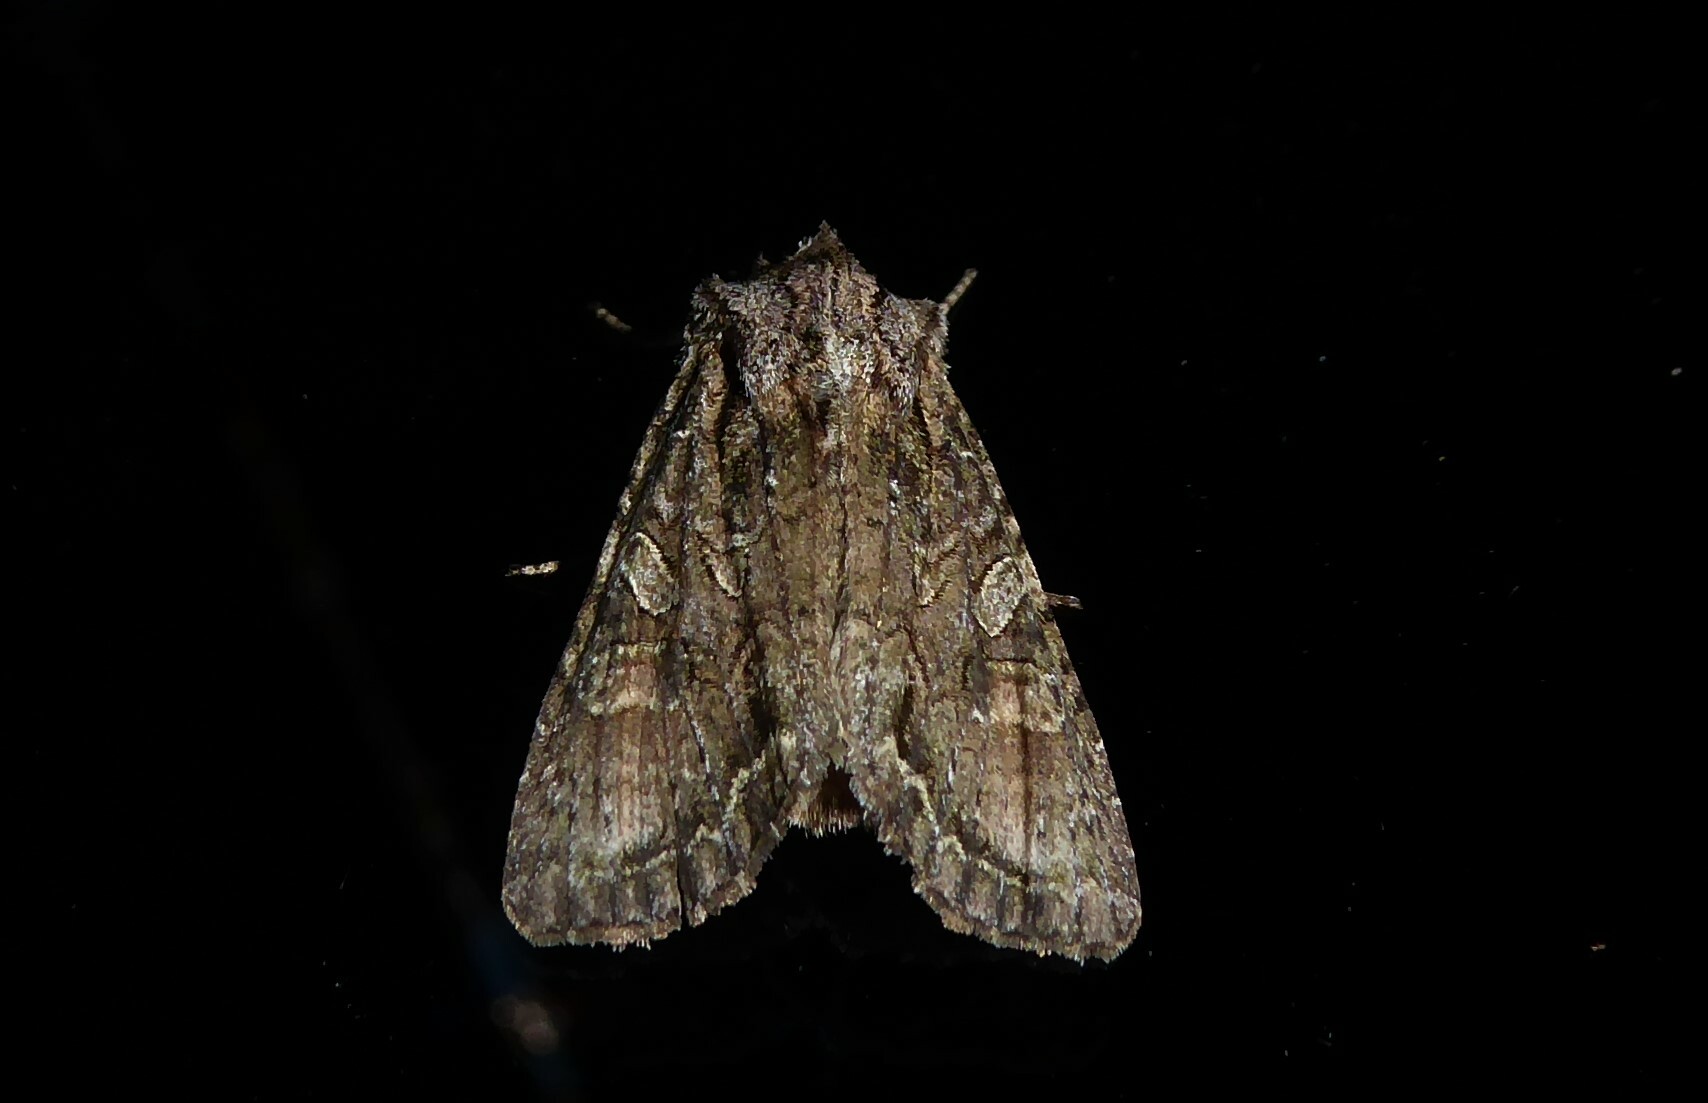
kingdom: Animalia
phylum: Arthropoda
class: Insecta
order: Lepidoptera
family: Noctuidae
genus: Ichneutica
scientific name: Ichneutica mutans
